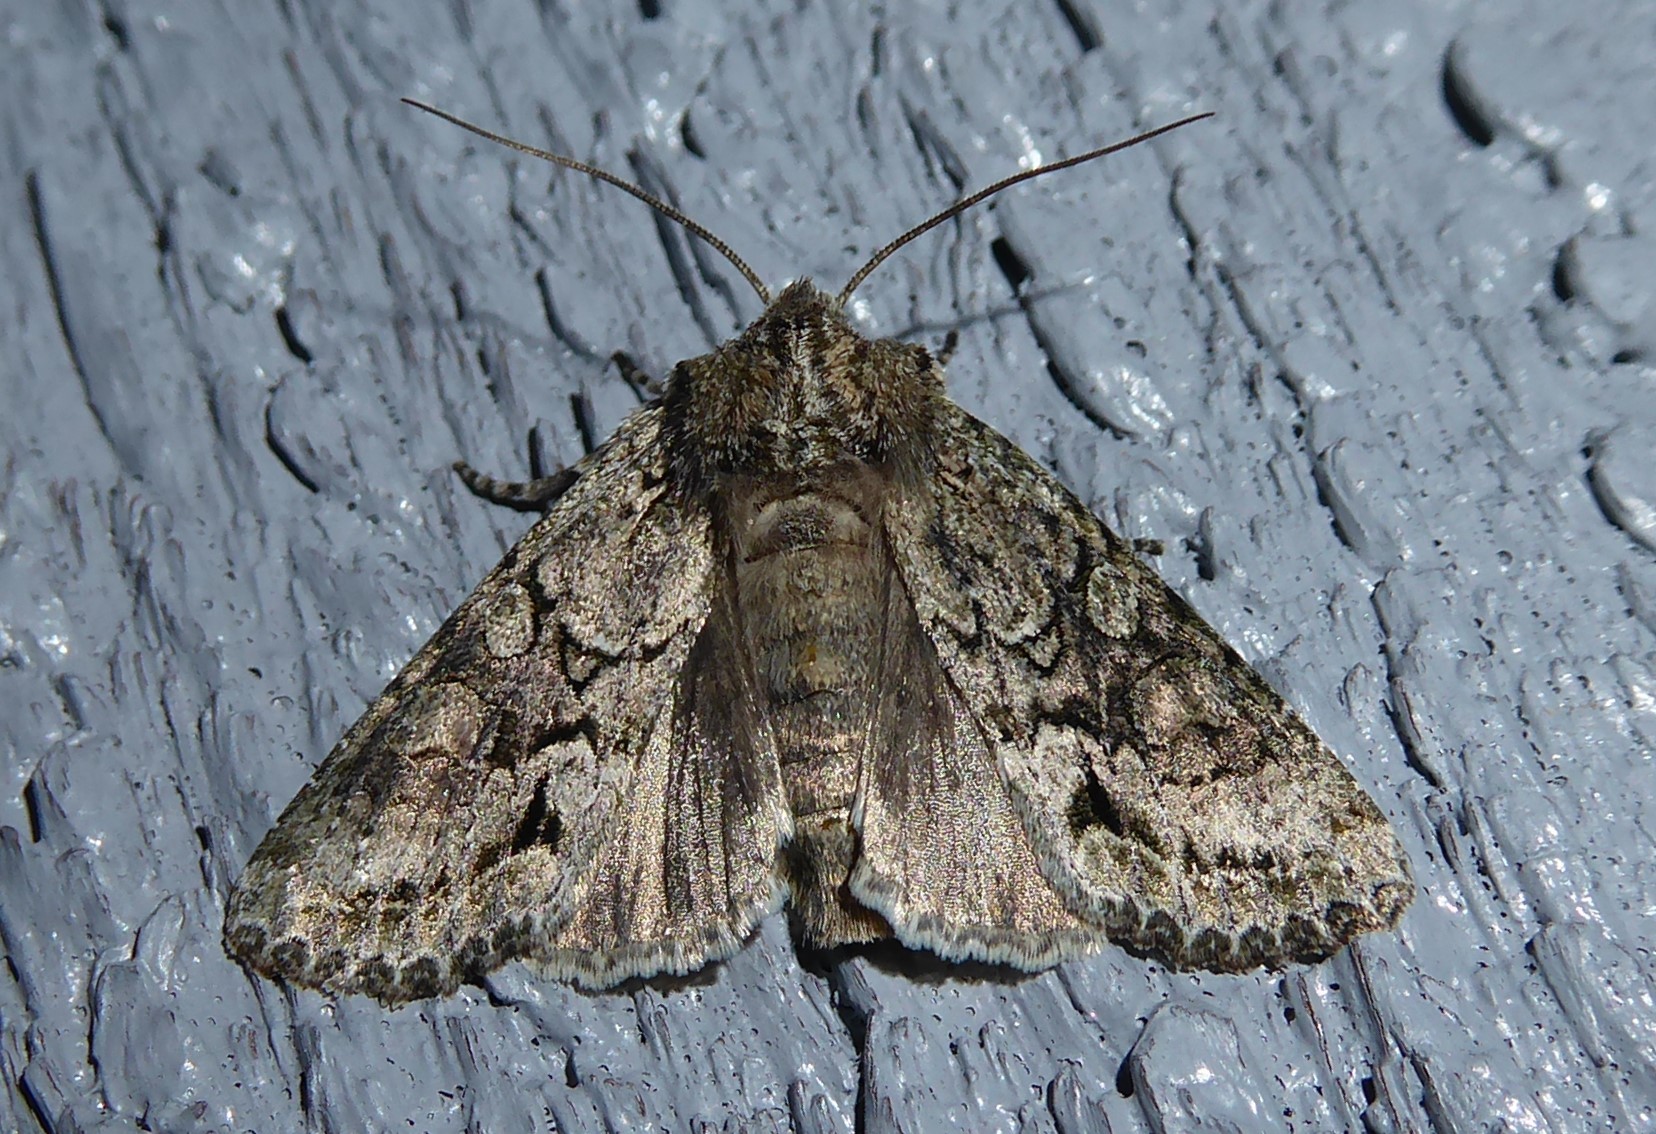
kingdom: Animalia
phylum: Arthropoda
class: Insecta
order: Lepidoptera
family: Noctuidae
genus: Ichneutica
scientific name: Ichneutica mutans
